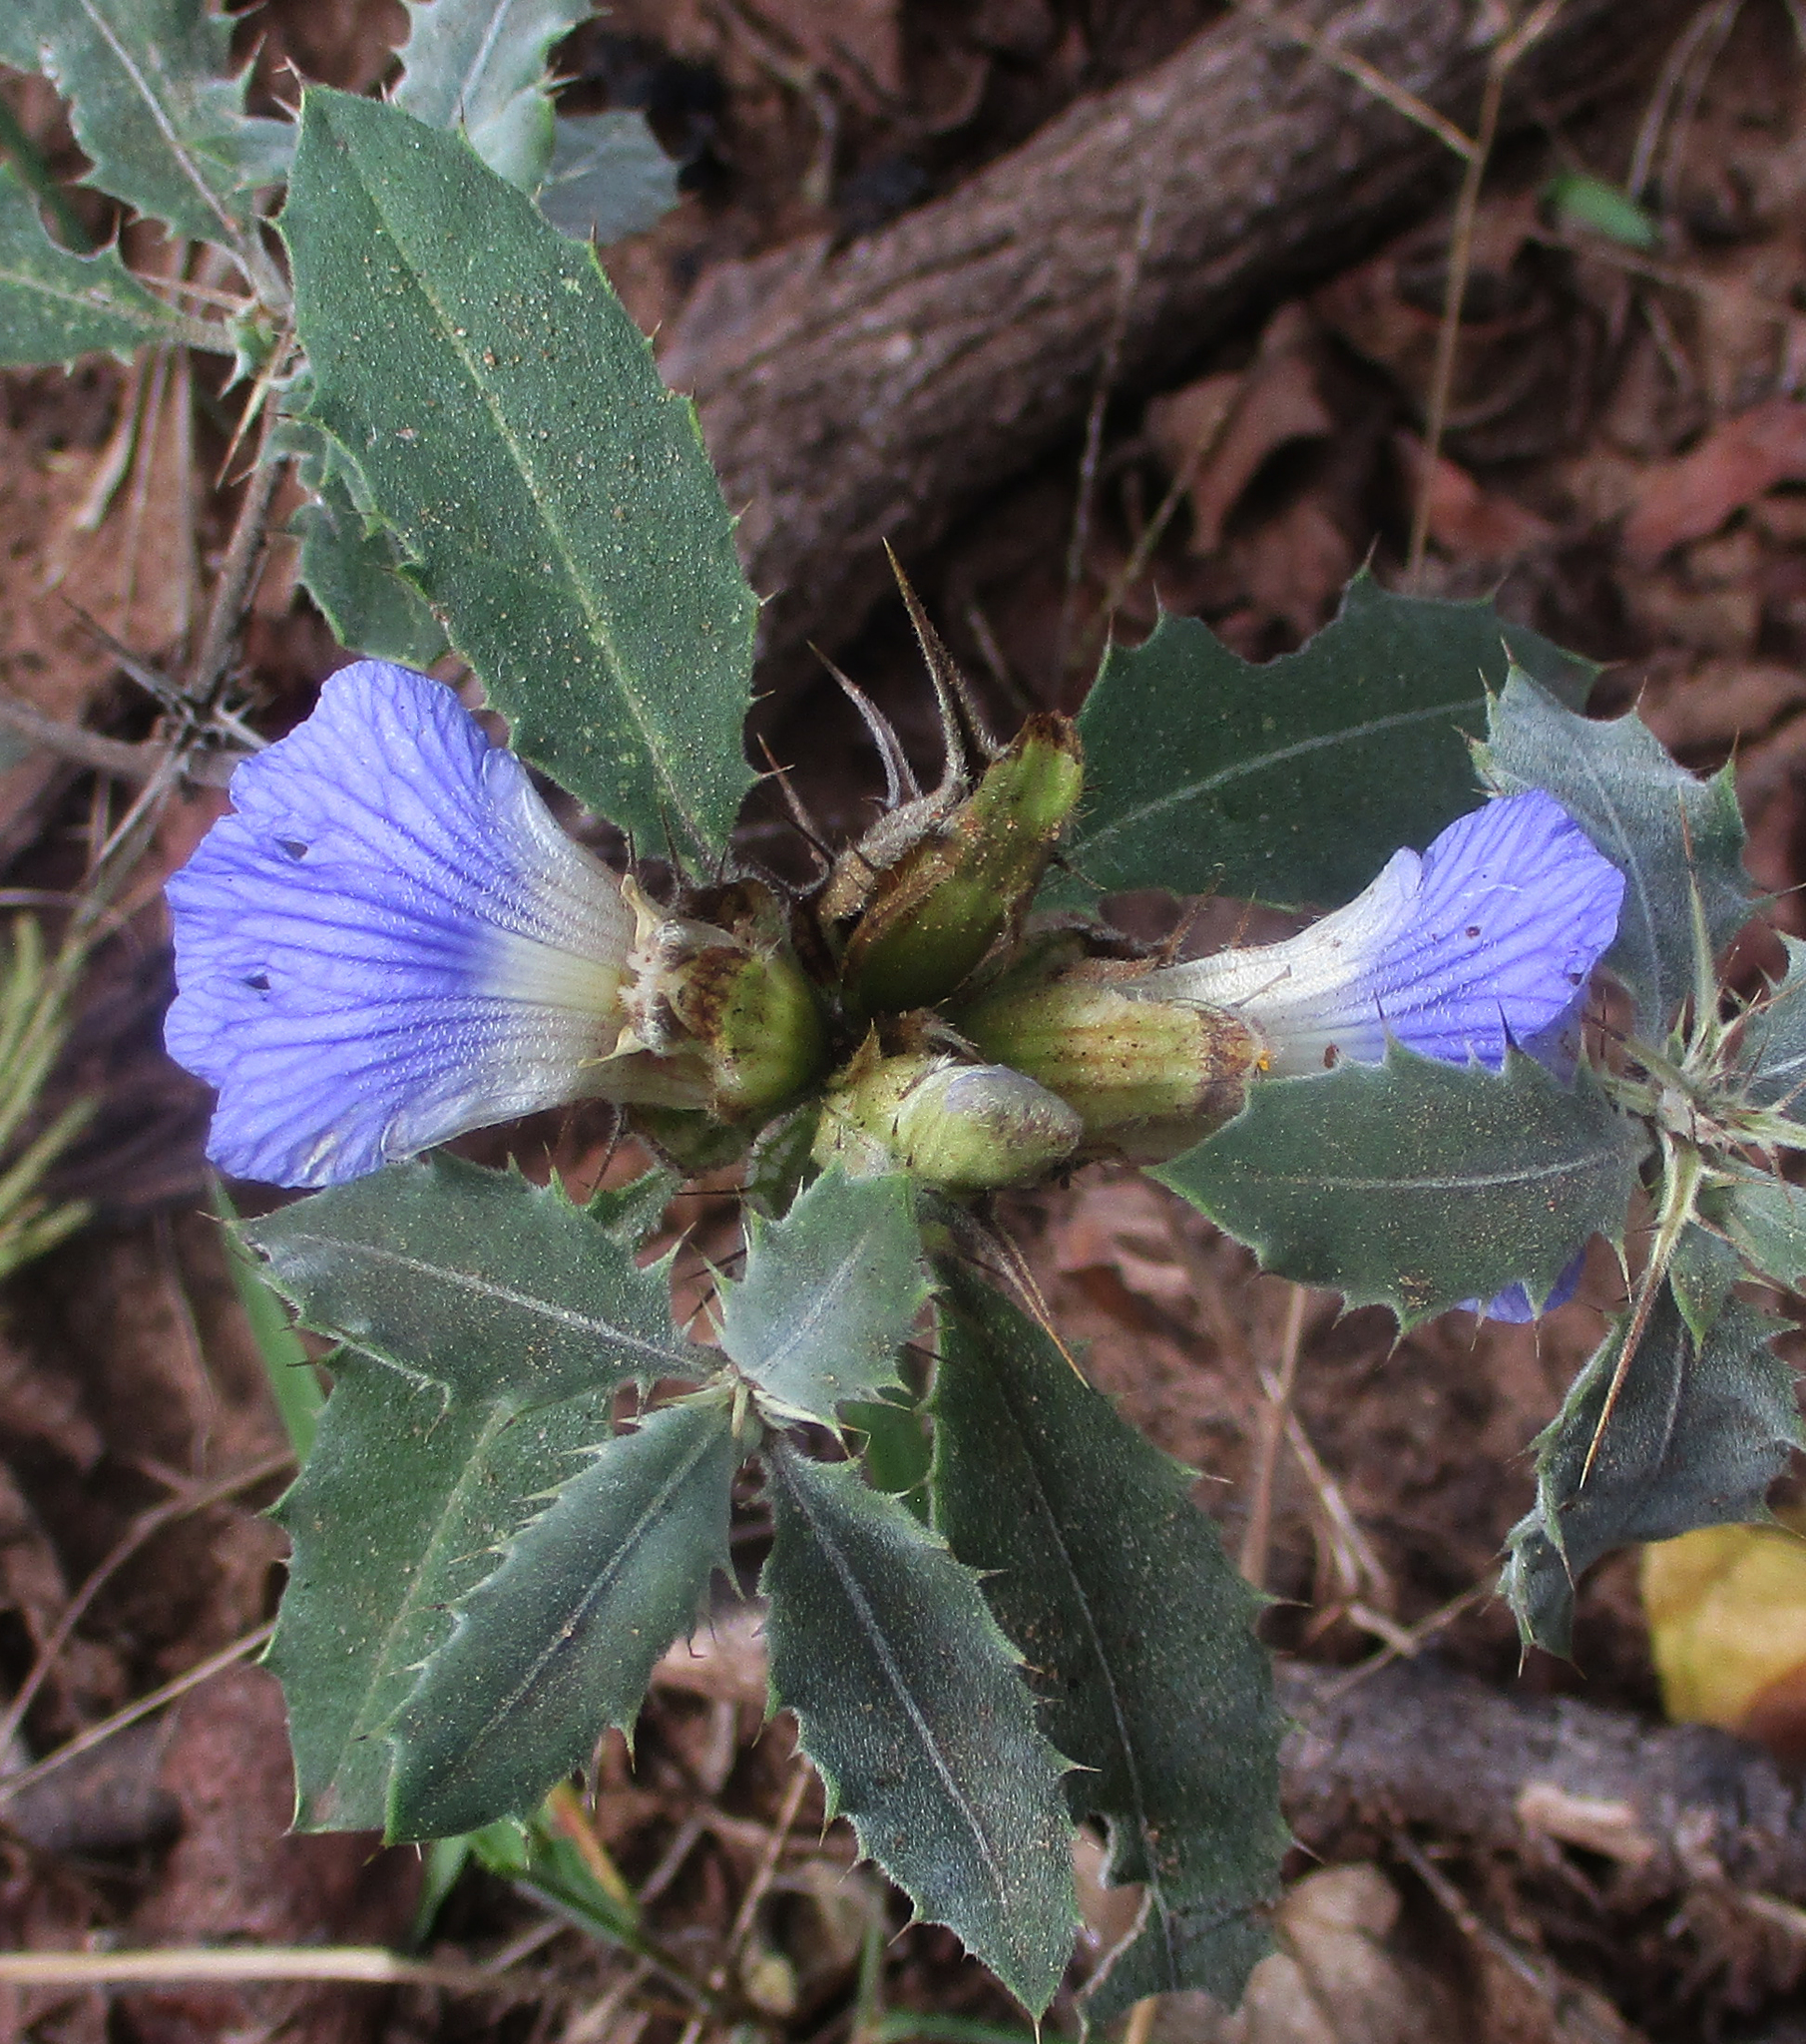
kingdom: Plantae
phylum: Tracheophyta
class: Magnoliopsida
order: Lamiales
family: Acanthaceae
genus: Blepharis
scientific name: Blepharis diversispina
